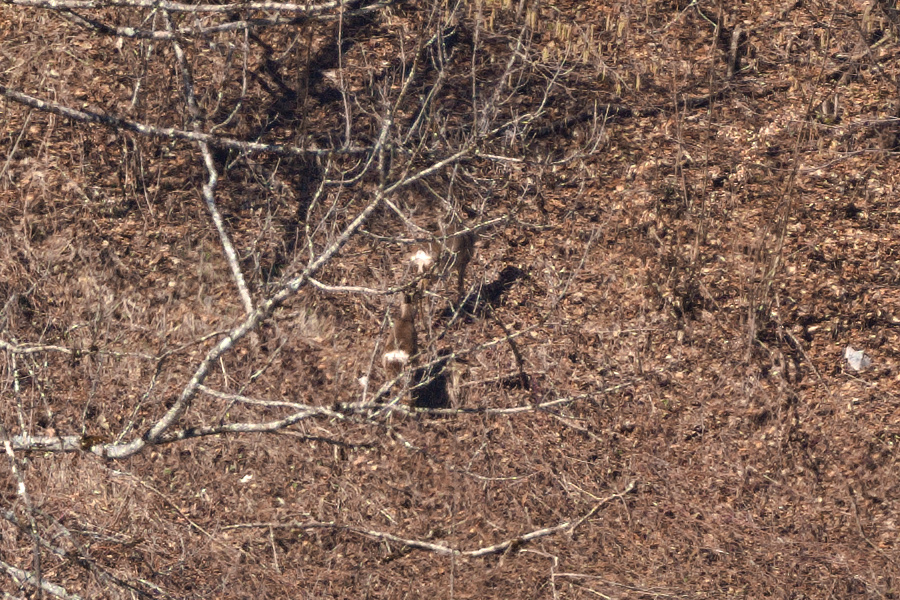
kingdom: Animalia
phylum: Chordata
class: Mammalia
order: Artiodactyla
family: Cervidae
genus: Capreolus
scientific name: Capreolus capreolus
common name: Western roe deer
